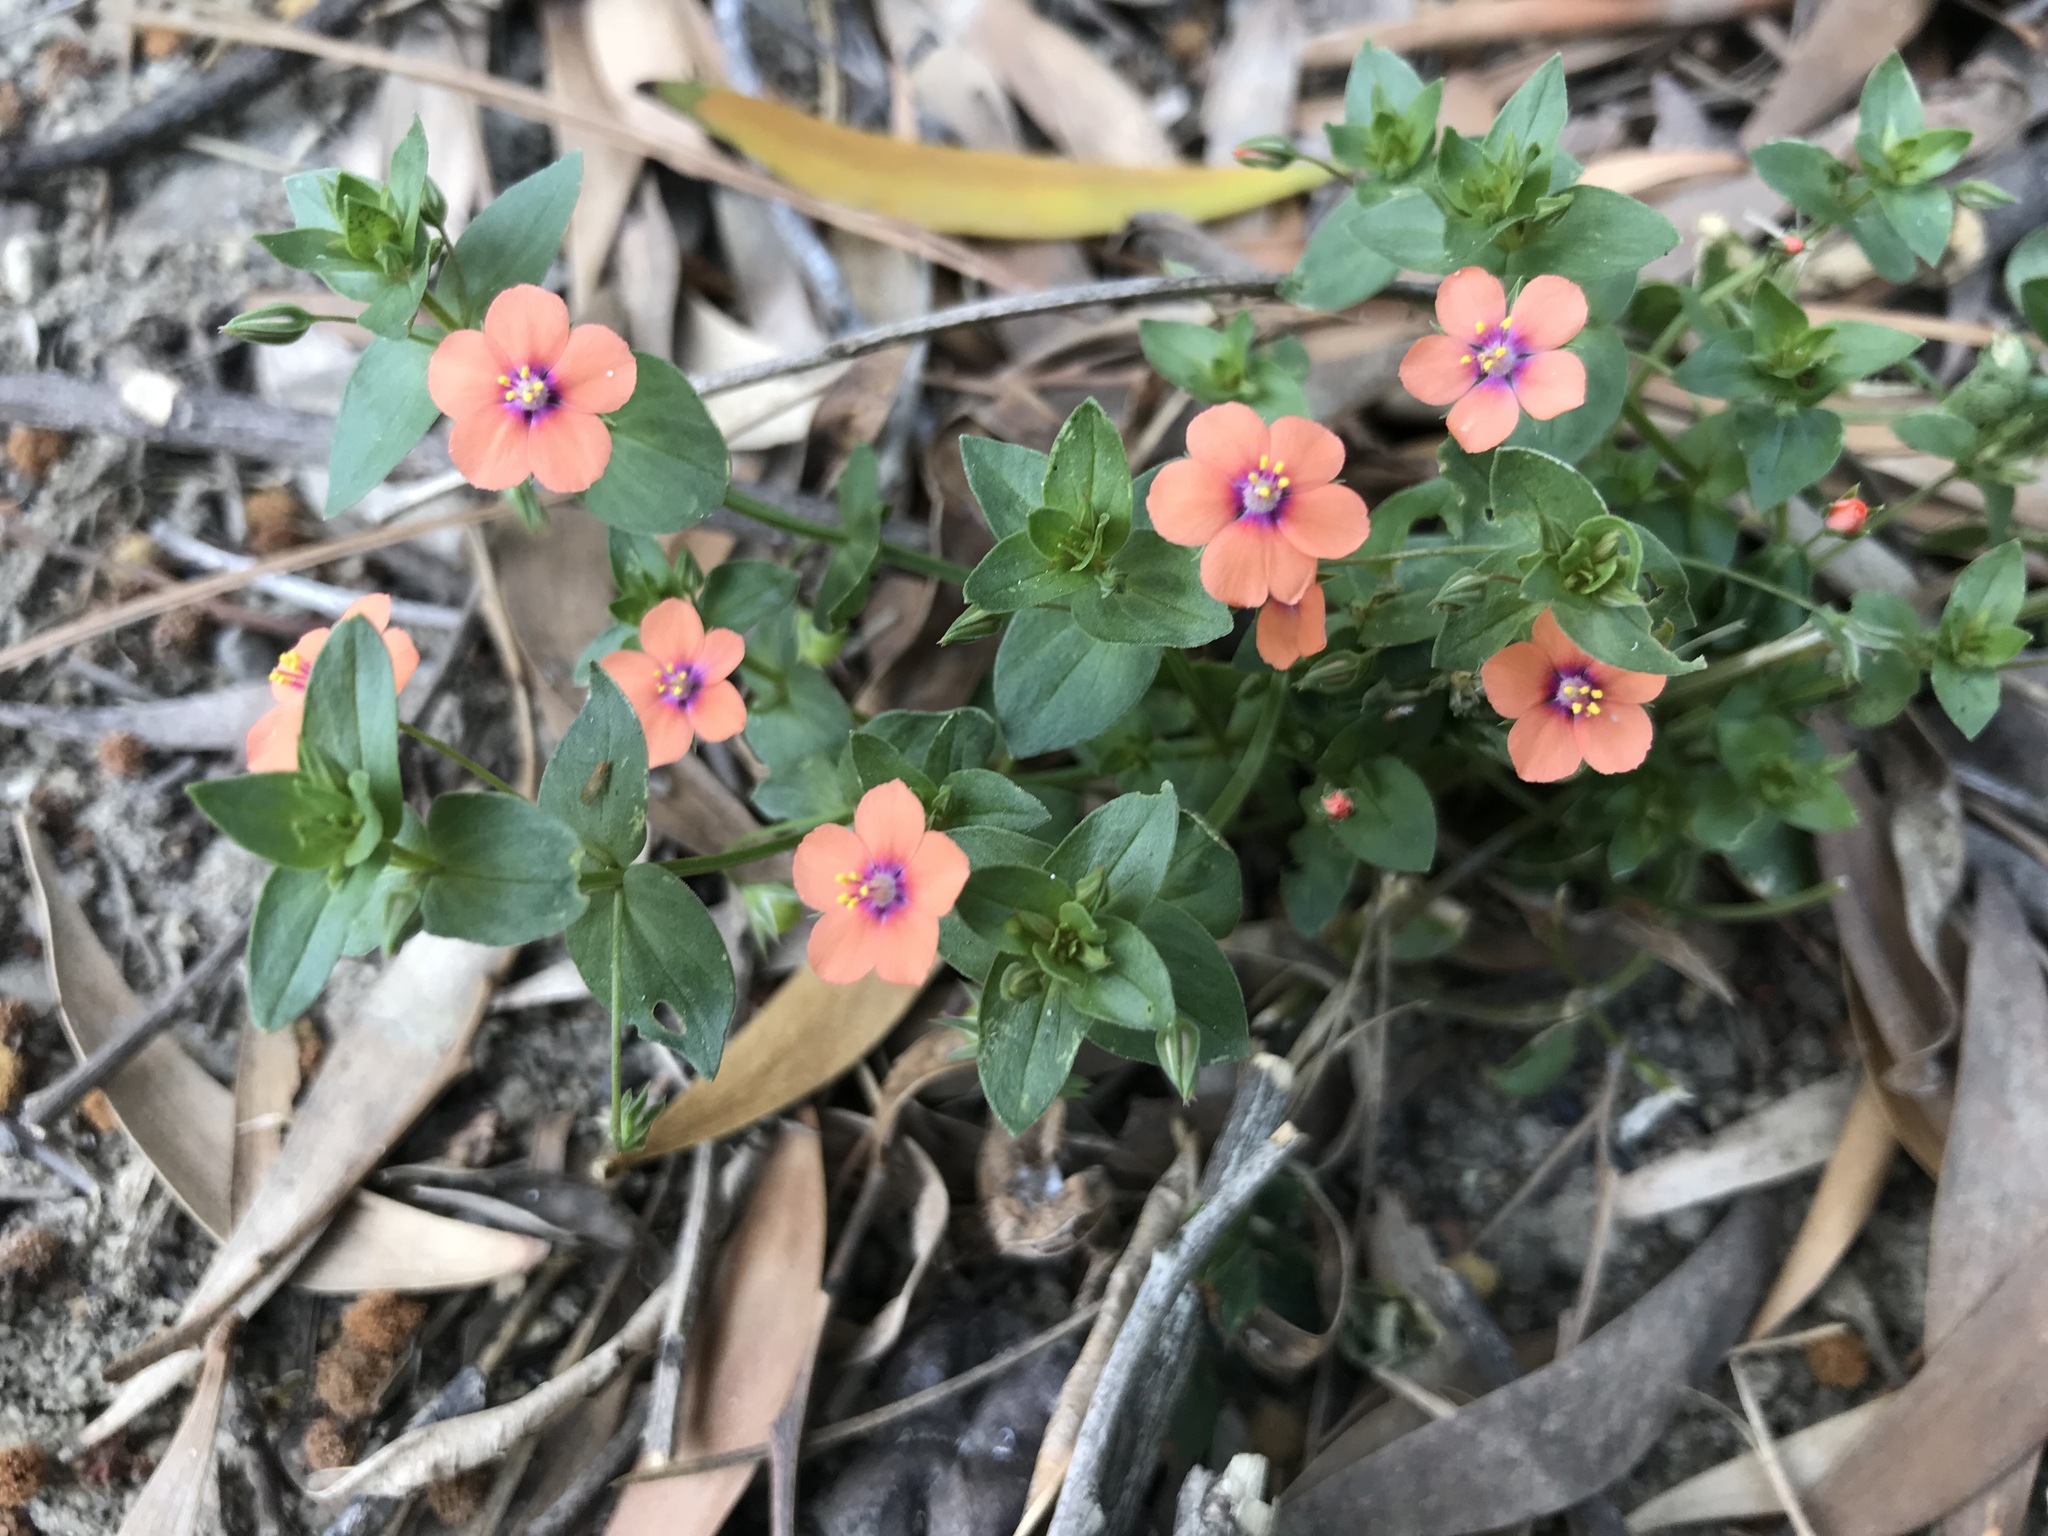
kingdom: Plantae
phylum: Tracheophyta
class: Magnoliopsida
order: Ericales
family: Primulaceae
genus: Lysimachia
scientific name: Lysimachia arvensis
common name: Scarlet pimpernel
